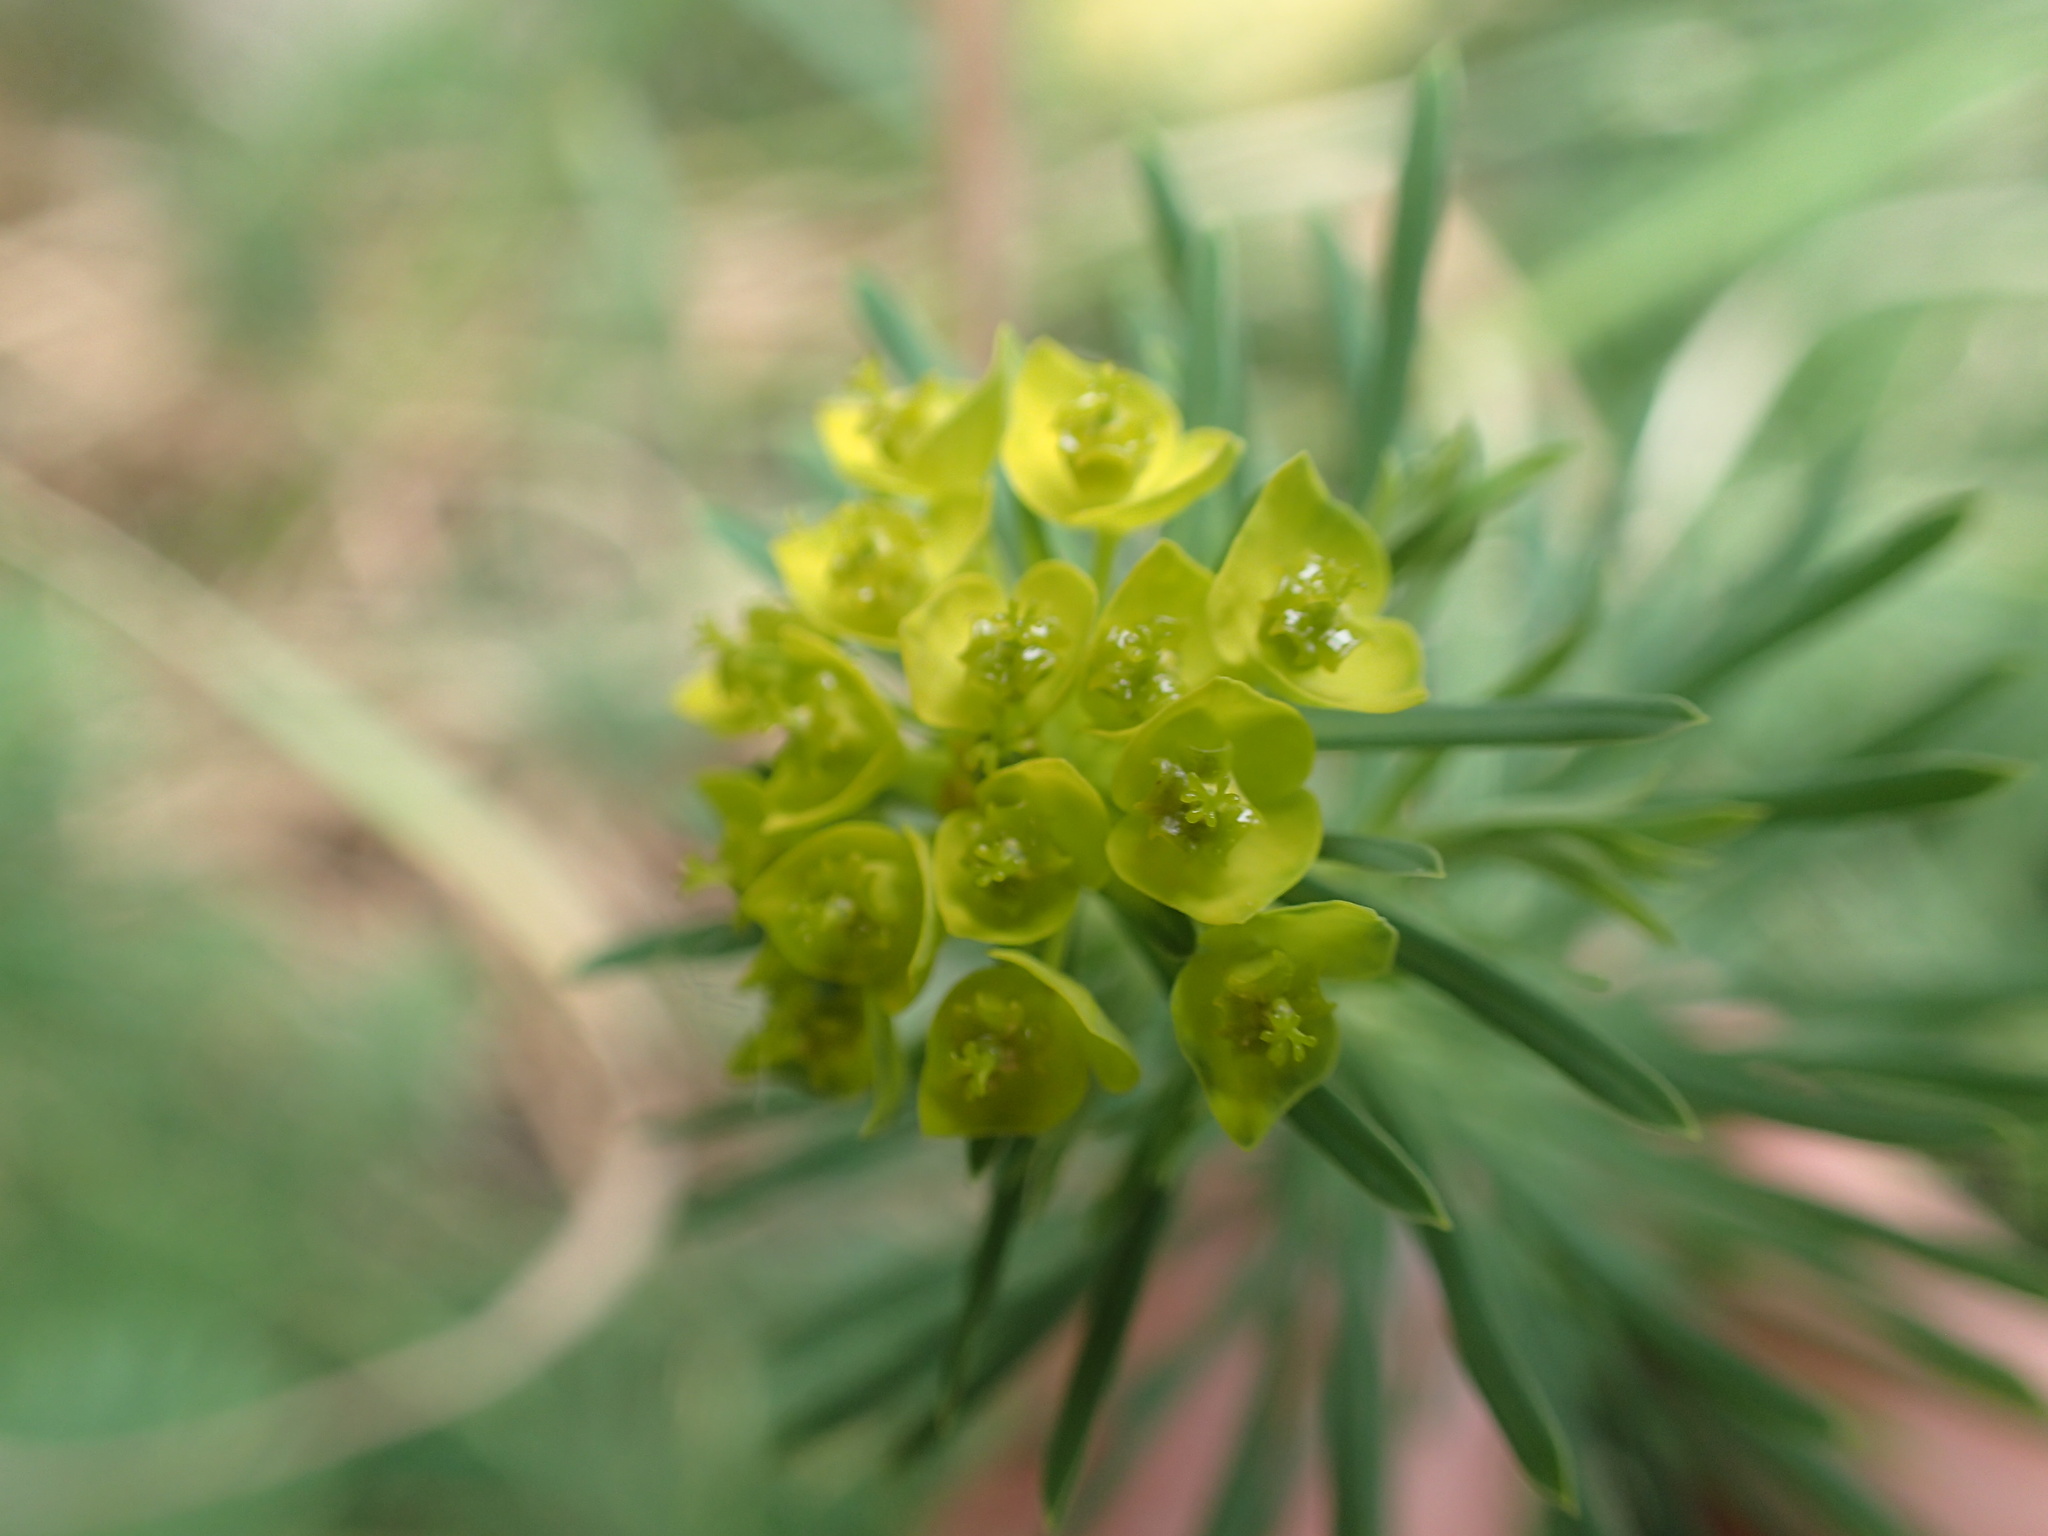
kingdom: Plantae
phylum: Tracheophyta
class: Magnoliopsida
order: Malpighiales
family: Euphorbiaceae
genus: Euphorbia
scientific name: Euphorbia cyparissias
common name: Cypress spurge
